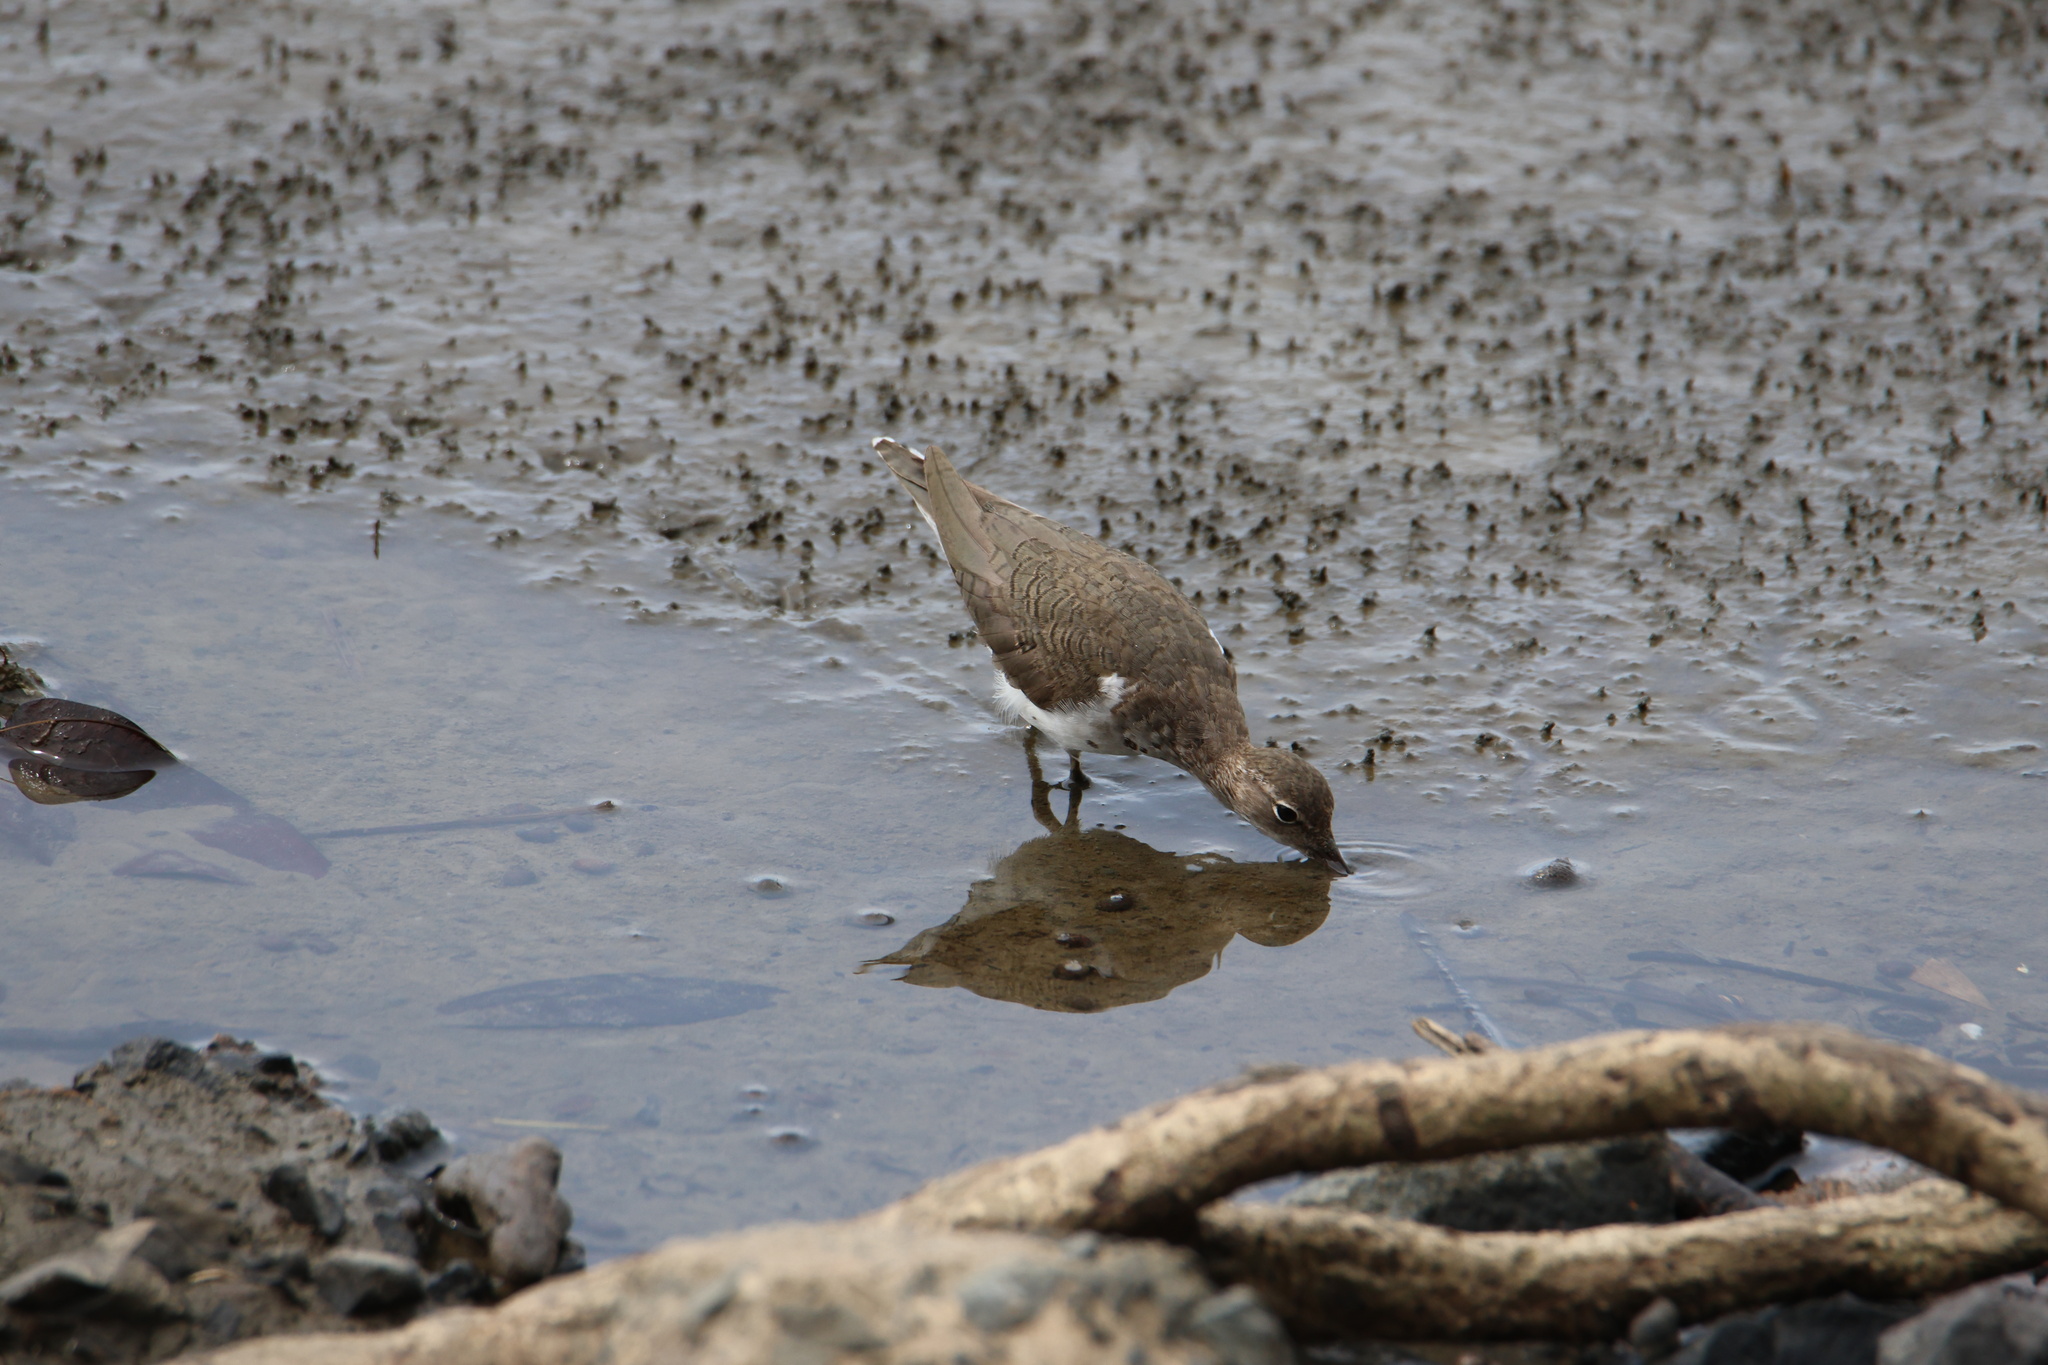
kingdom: Animalia
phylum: Chordata
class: Aves
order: Charadriiformes
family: Scolopacidae
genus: Actitis
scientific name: Actitis macularius
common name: Spotted sandpiper
